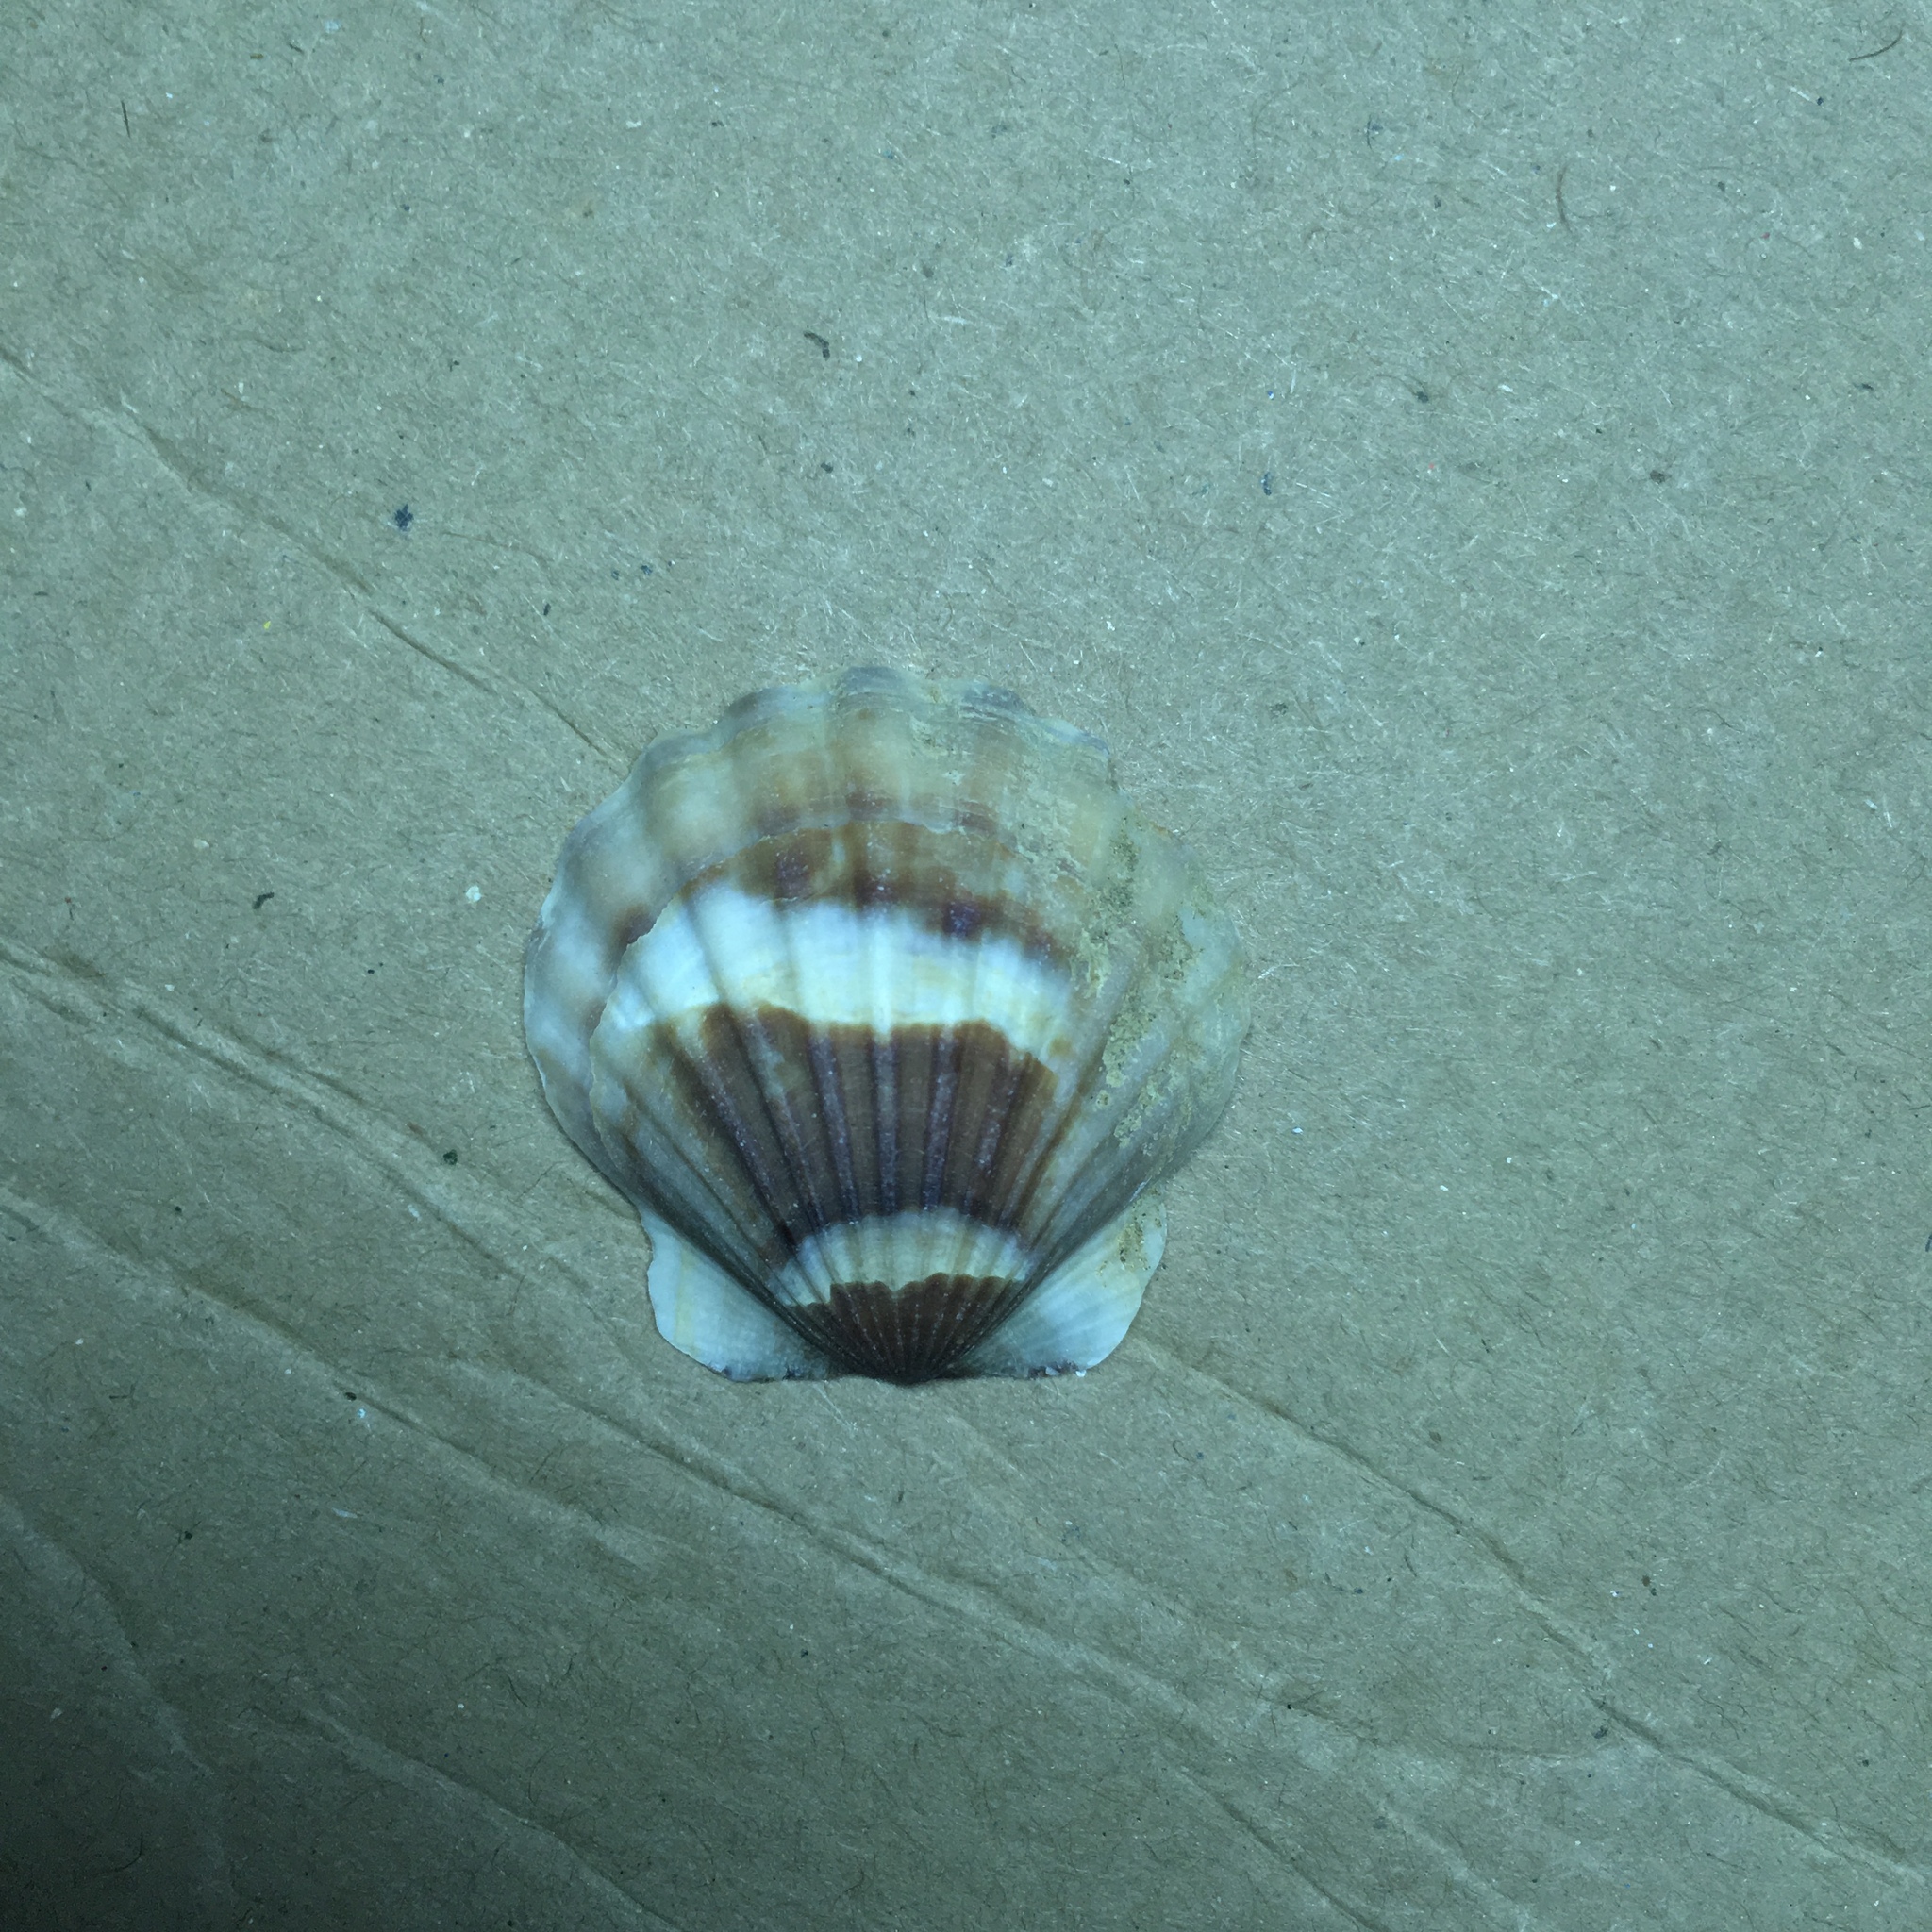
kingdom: Animalia
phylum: Mollusca
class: Bivalvia
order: Pectinida
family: Pectinidae
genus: Flexopecten
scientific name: Flexopecten glaber
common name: Smooth scallop
